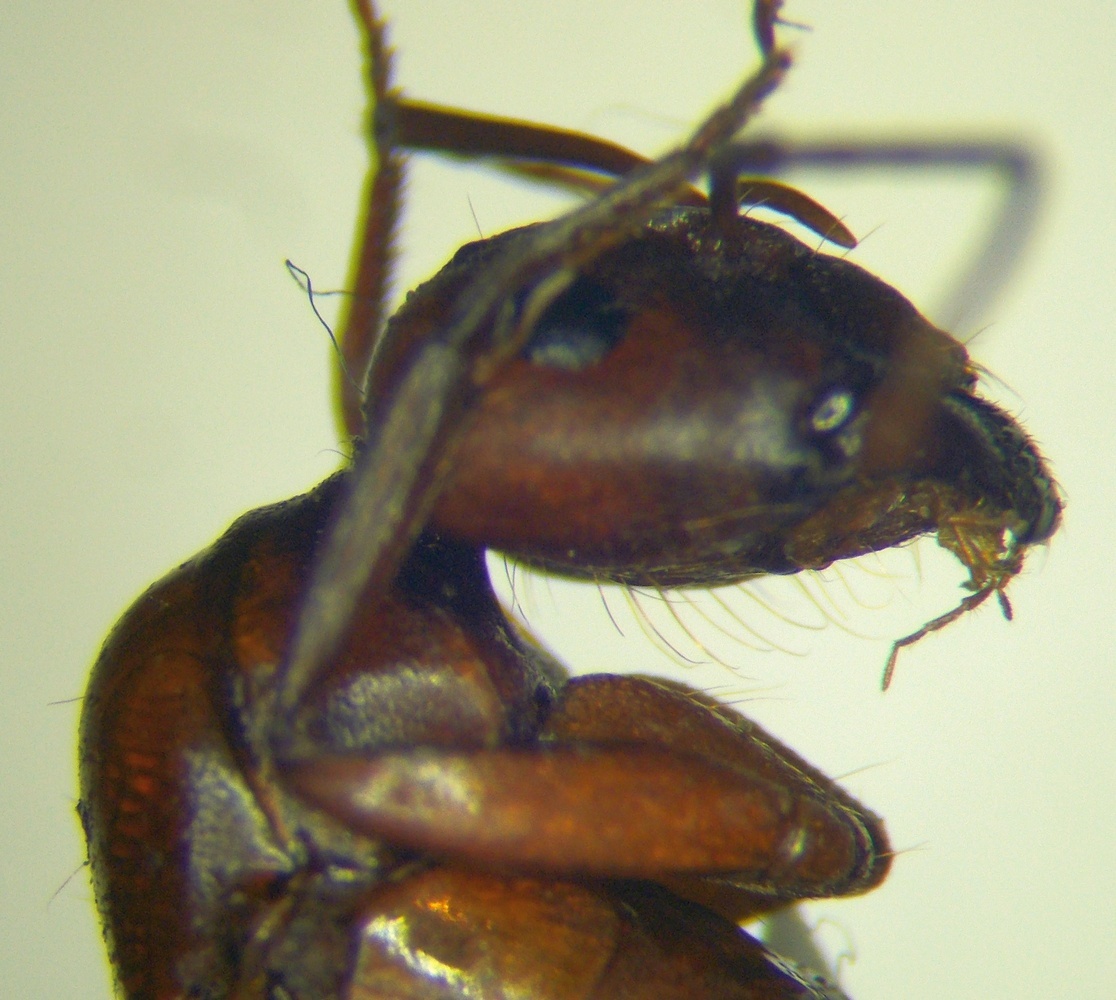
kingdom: Animalia
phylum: Arthropoda
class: Insecta
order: Hymenoptera
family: Formicidae
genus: Camponotus
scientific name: Camponotus turkestanicus
